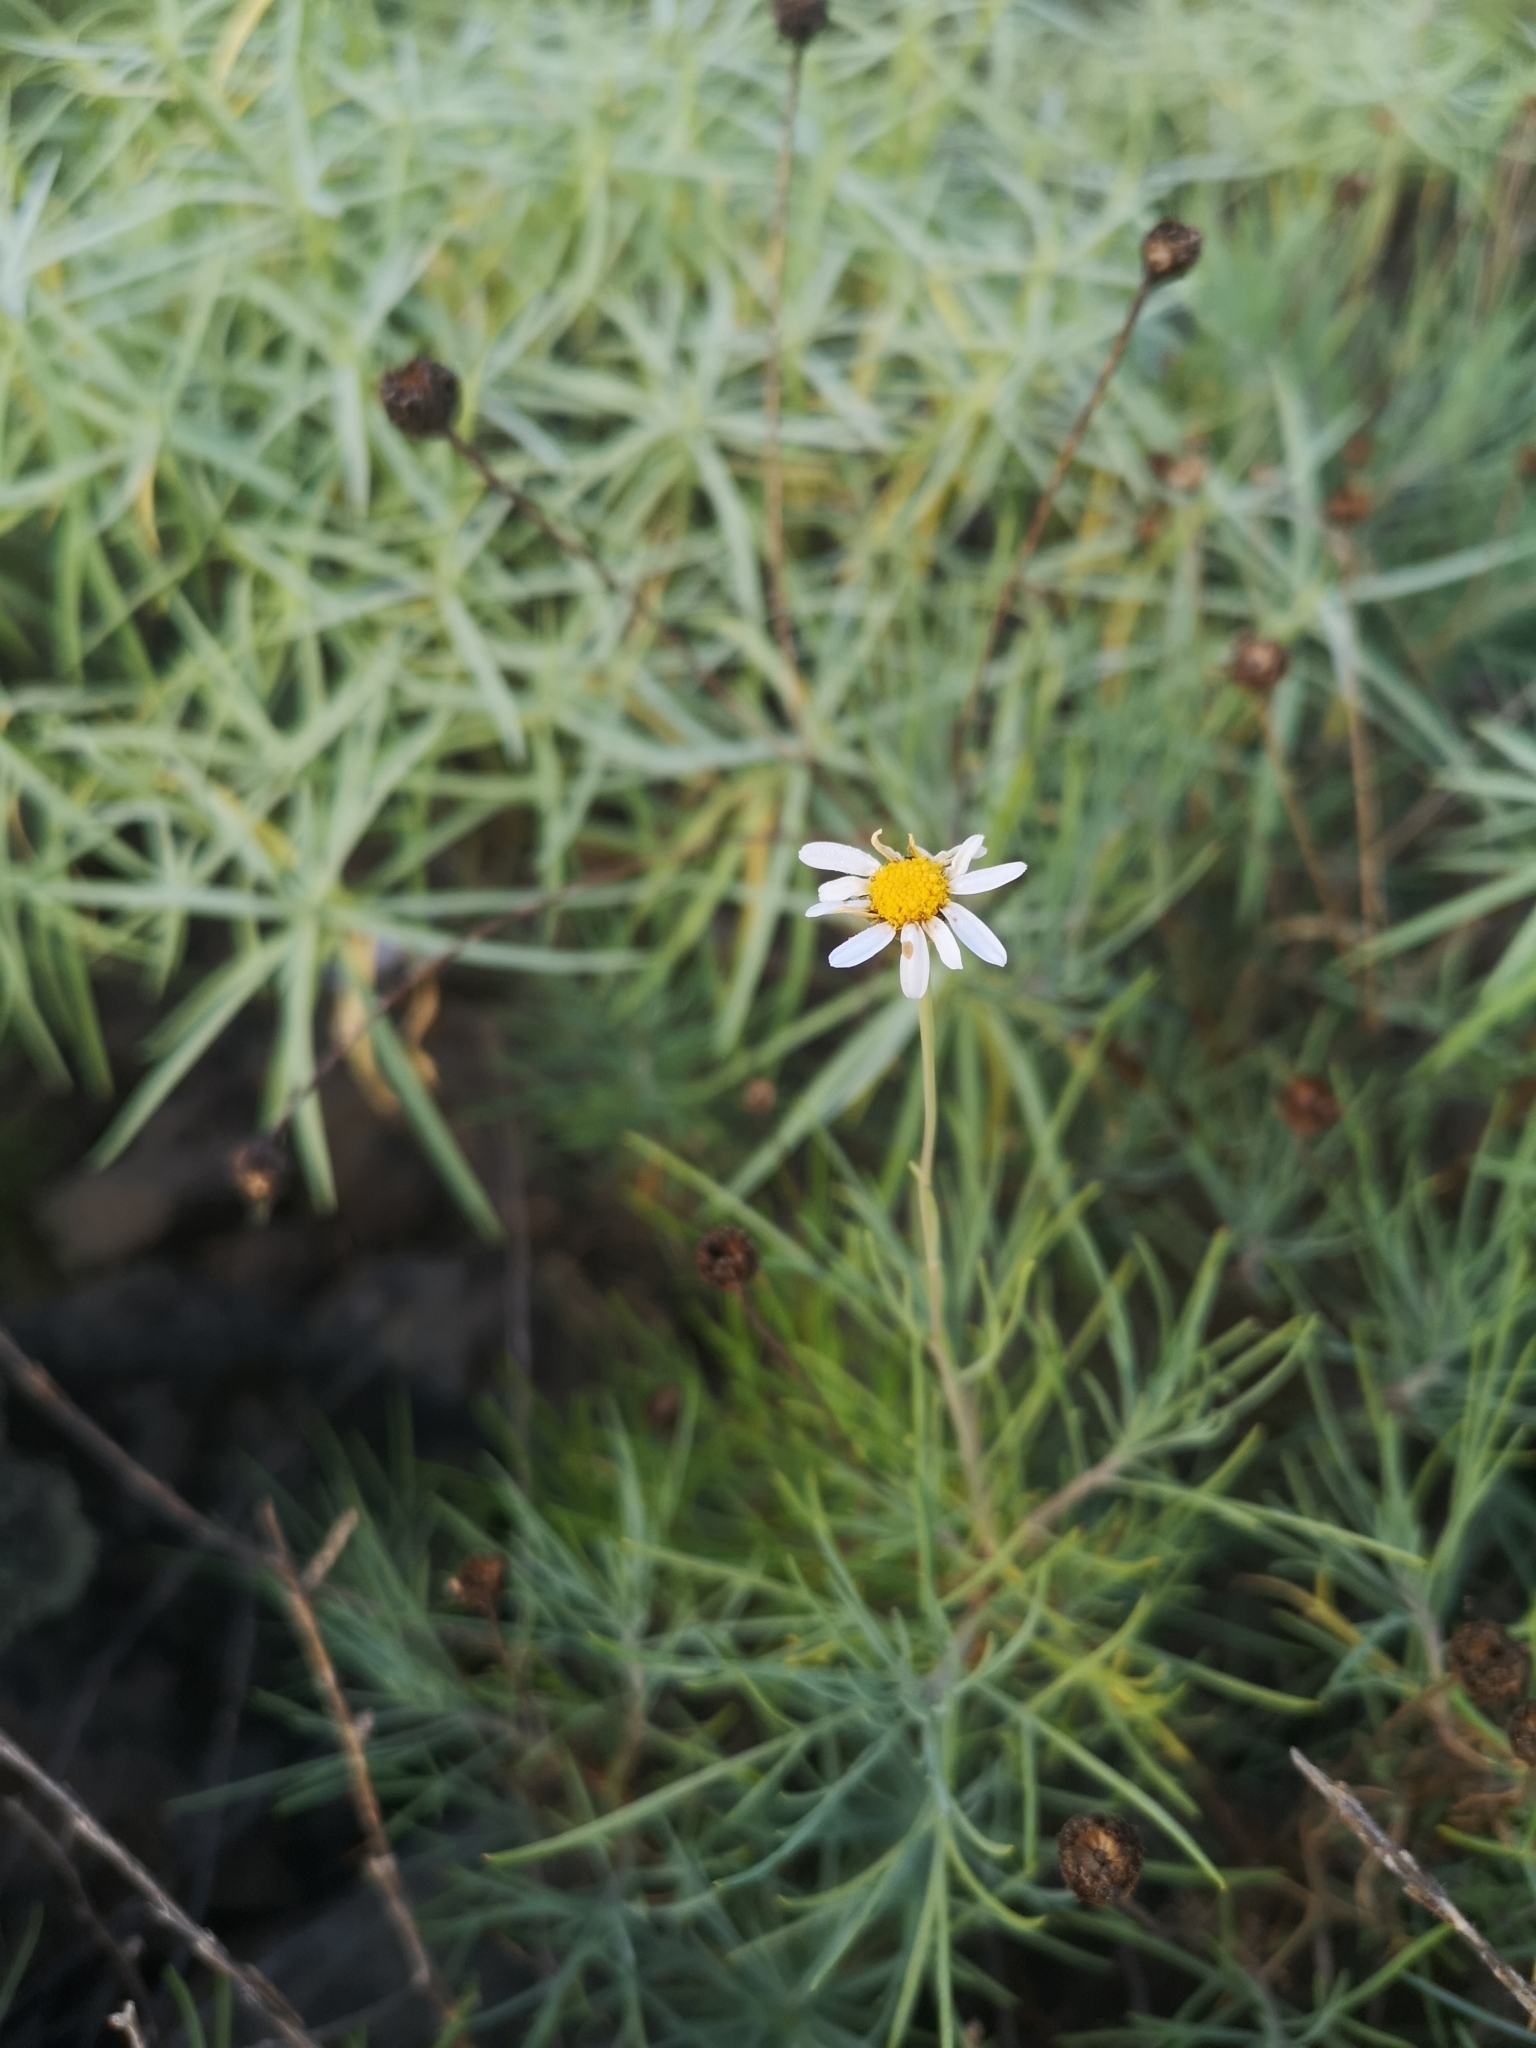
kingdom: Plantae
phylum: Tracheophyta
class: Magnoliopsida
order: Asterales
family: Asteraceae
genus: Argyranthemum
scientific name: Argyranthemum gracile
